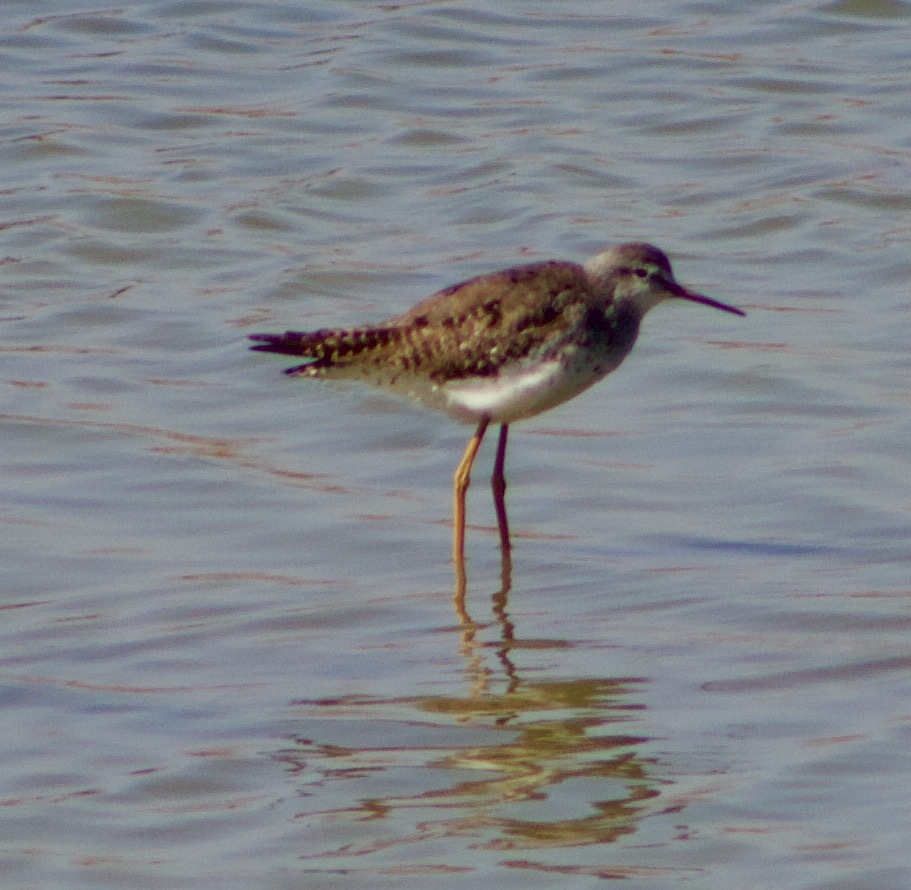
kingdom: Animalia
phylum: Chordata
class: Aves
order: Charadriiformes
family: Scolopacidae
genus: Tringa
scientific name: Tringa melanoleuca
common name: Greater yellowlegs
